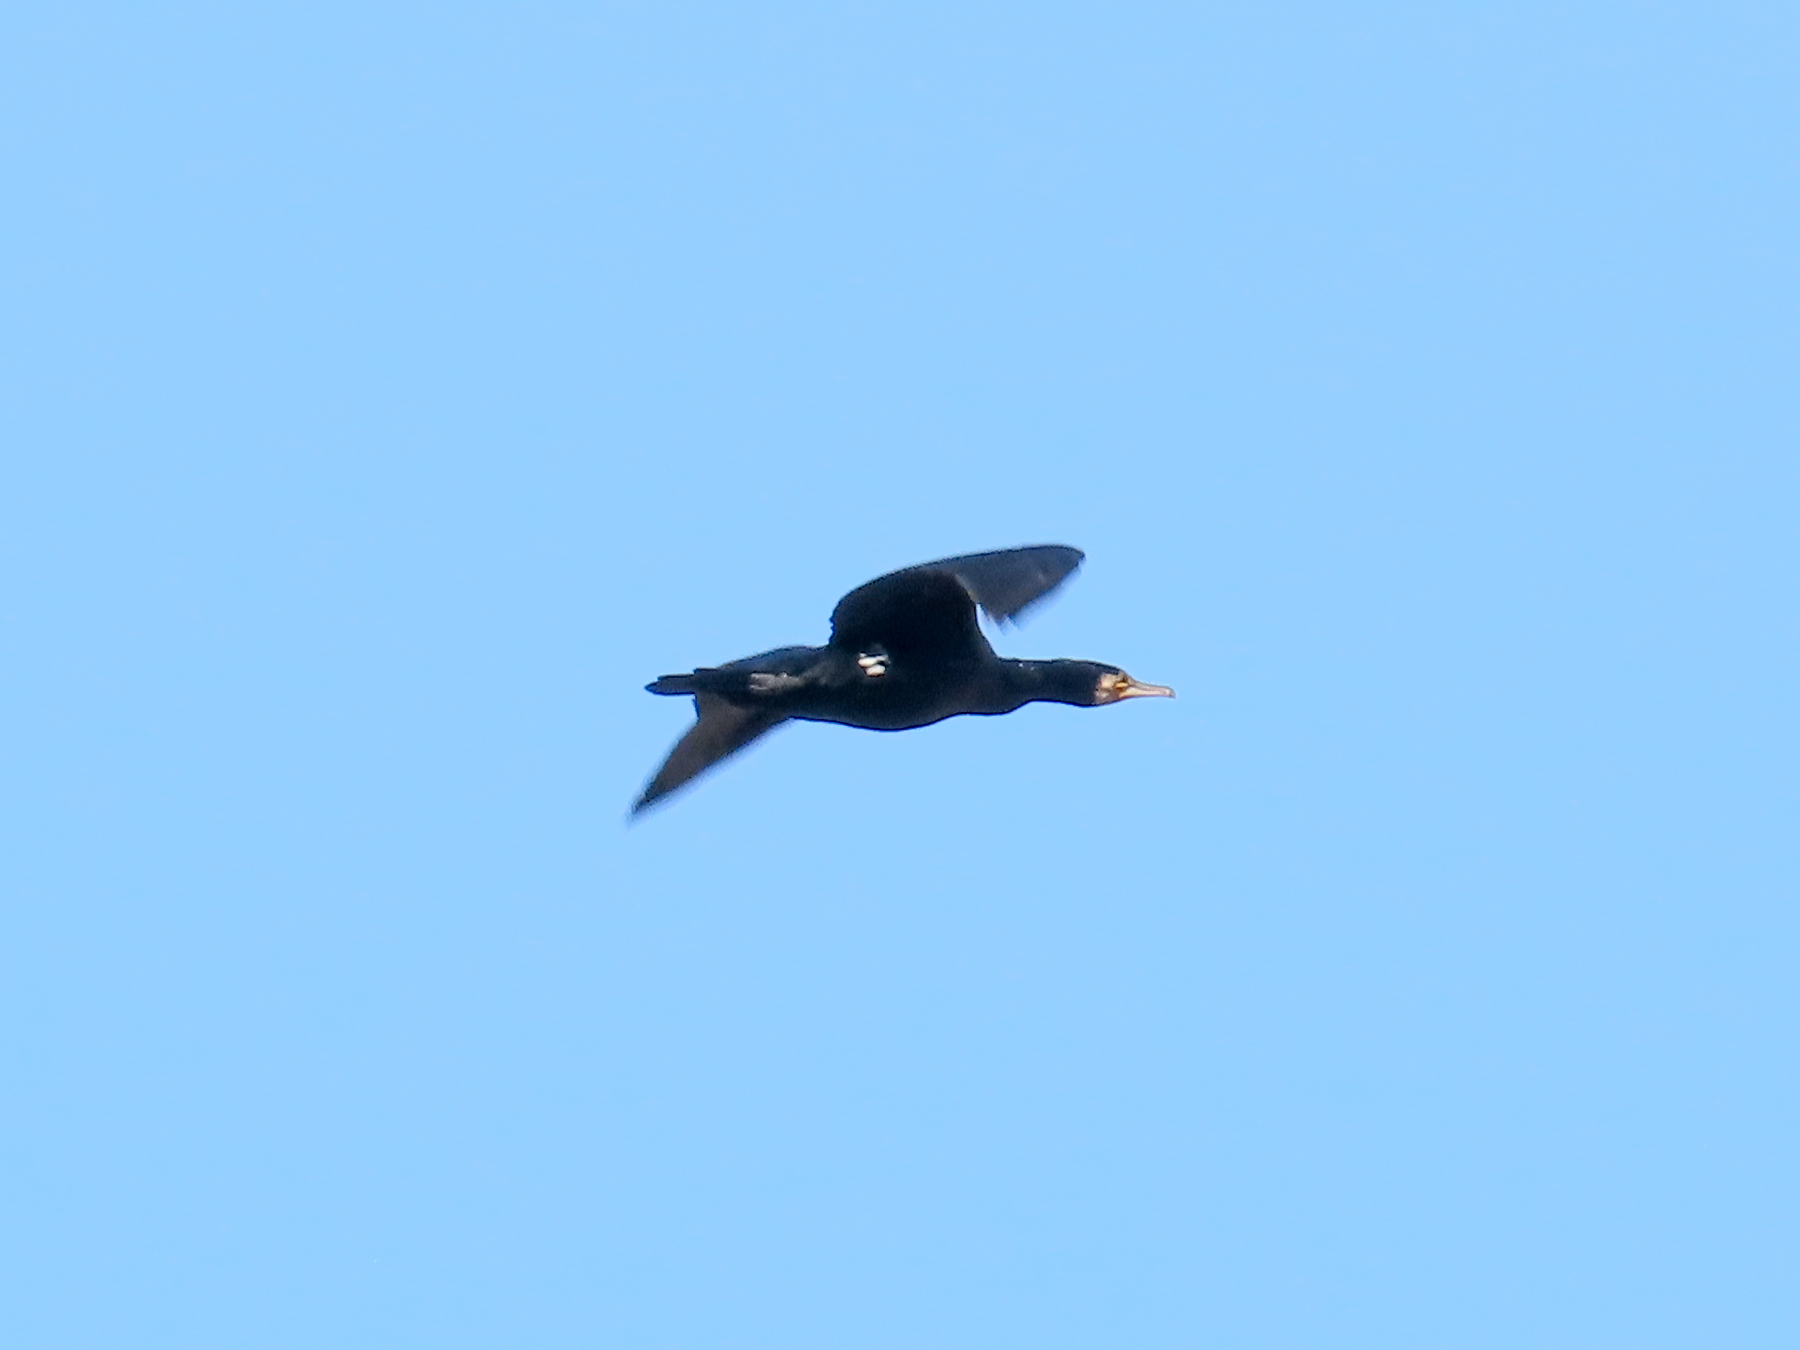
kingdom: Animalia
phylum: Chordata
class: Aves
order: Suliformes
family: Phalacrocoracidae
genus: Phalacrocorax
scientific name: Phalacrocorax carbo
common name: Great cormorant
